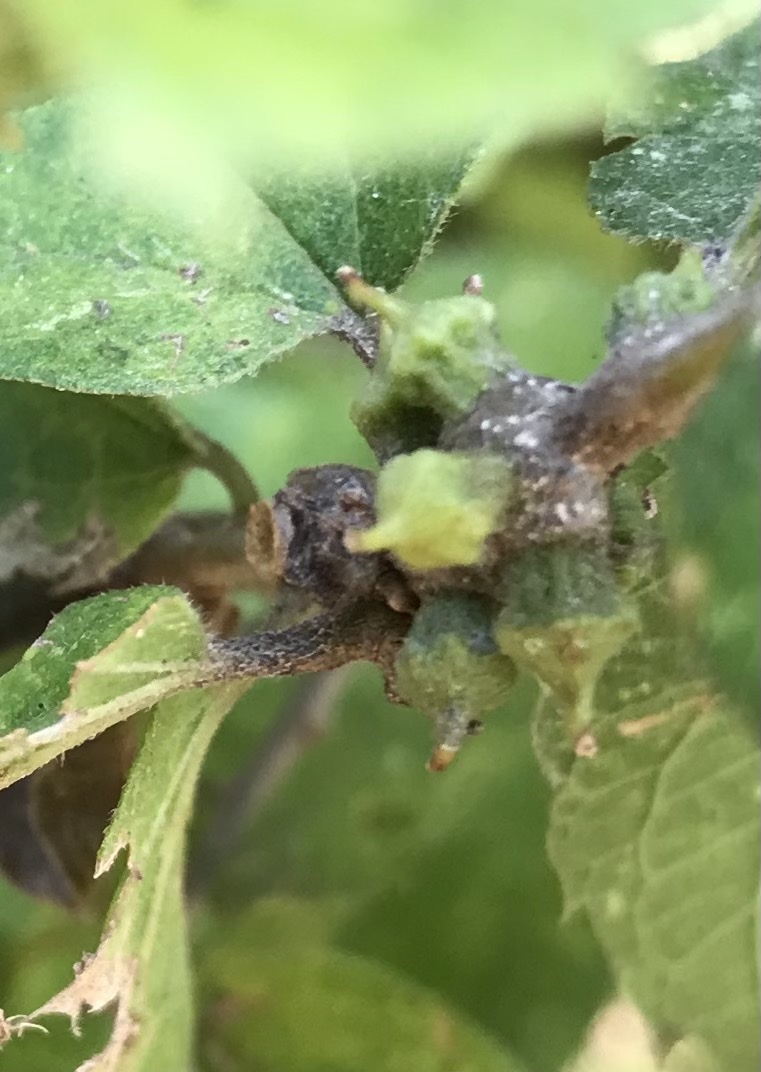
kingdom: Animalia
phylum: Arthropoda
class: Insecta
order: Diptera
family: Cecidomyiidae
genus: Celticecis
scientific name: Celticecis ramicola
